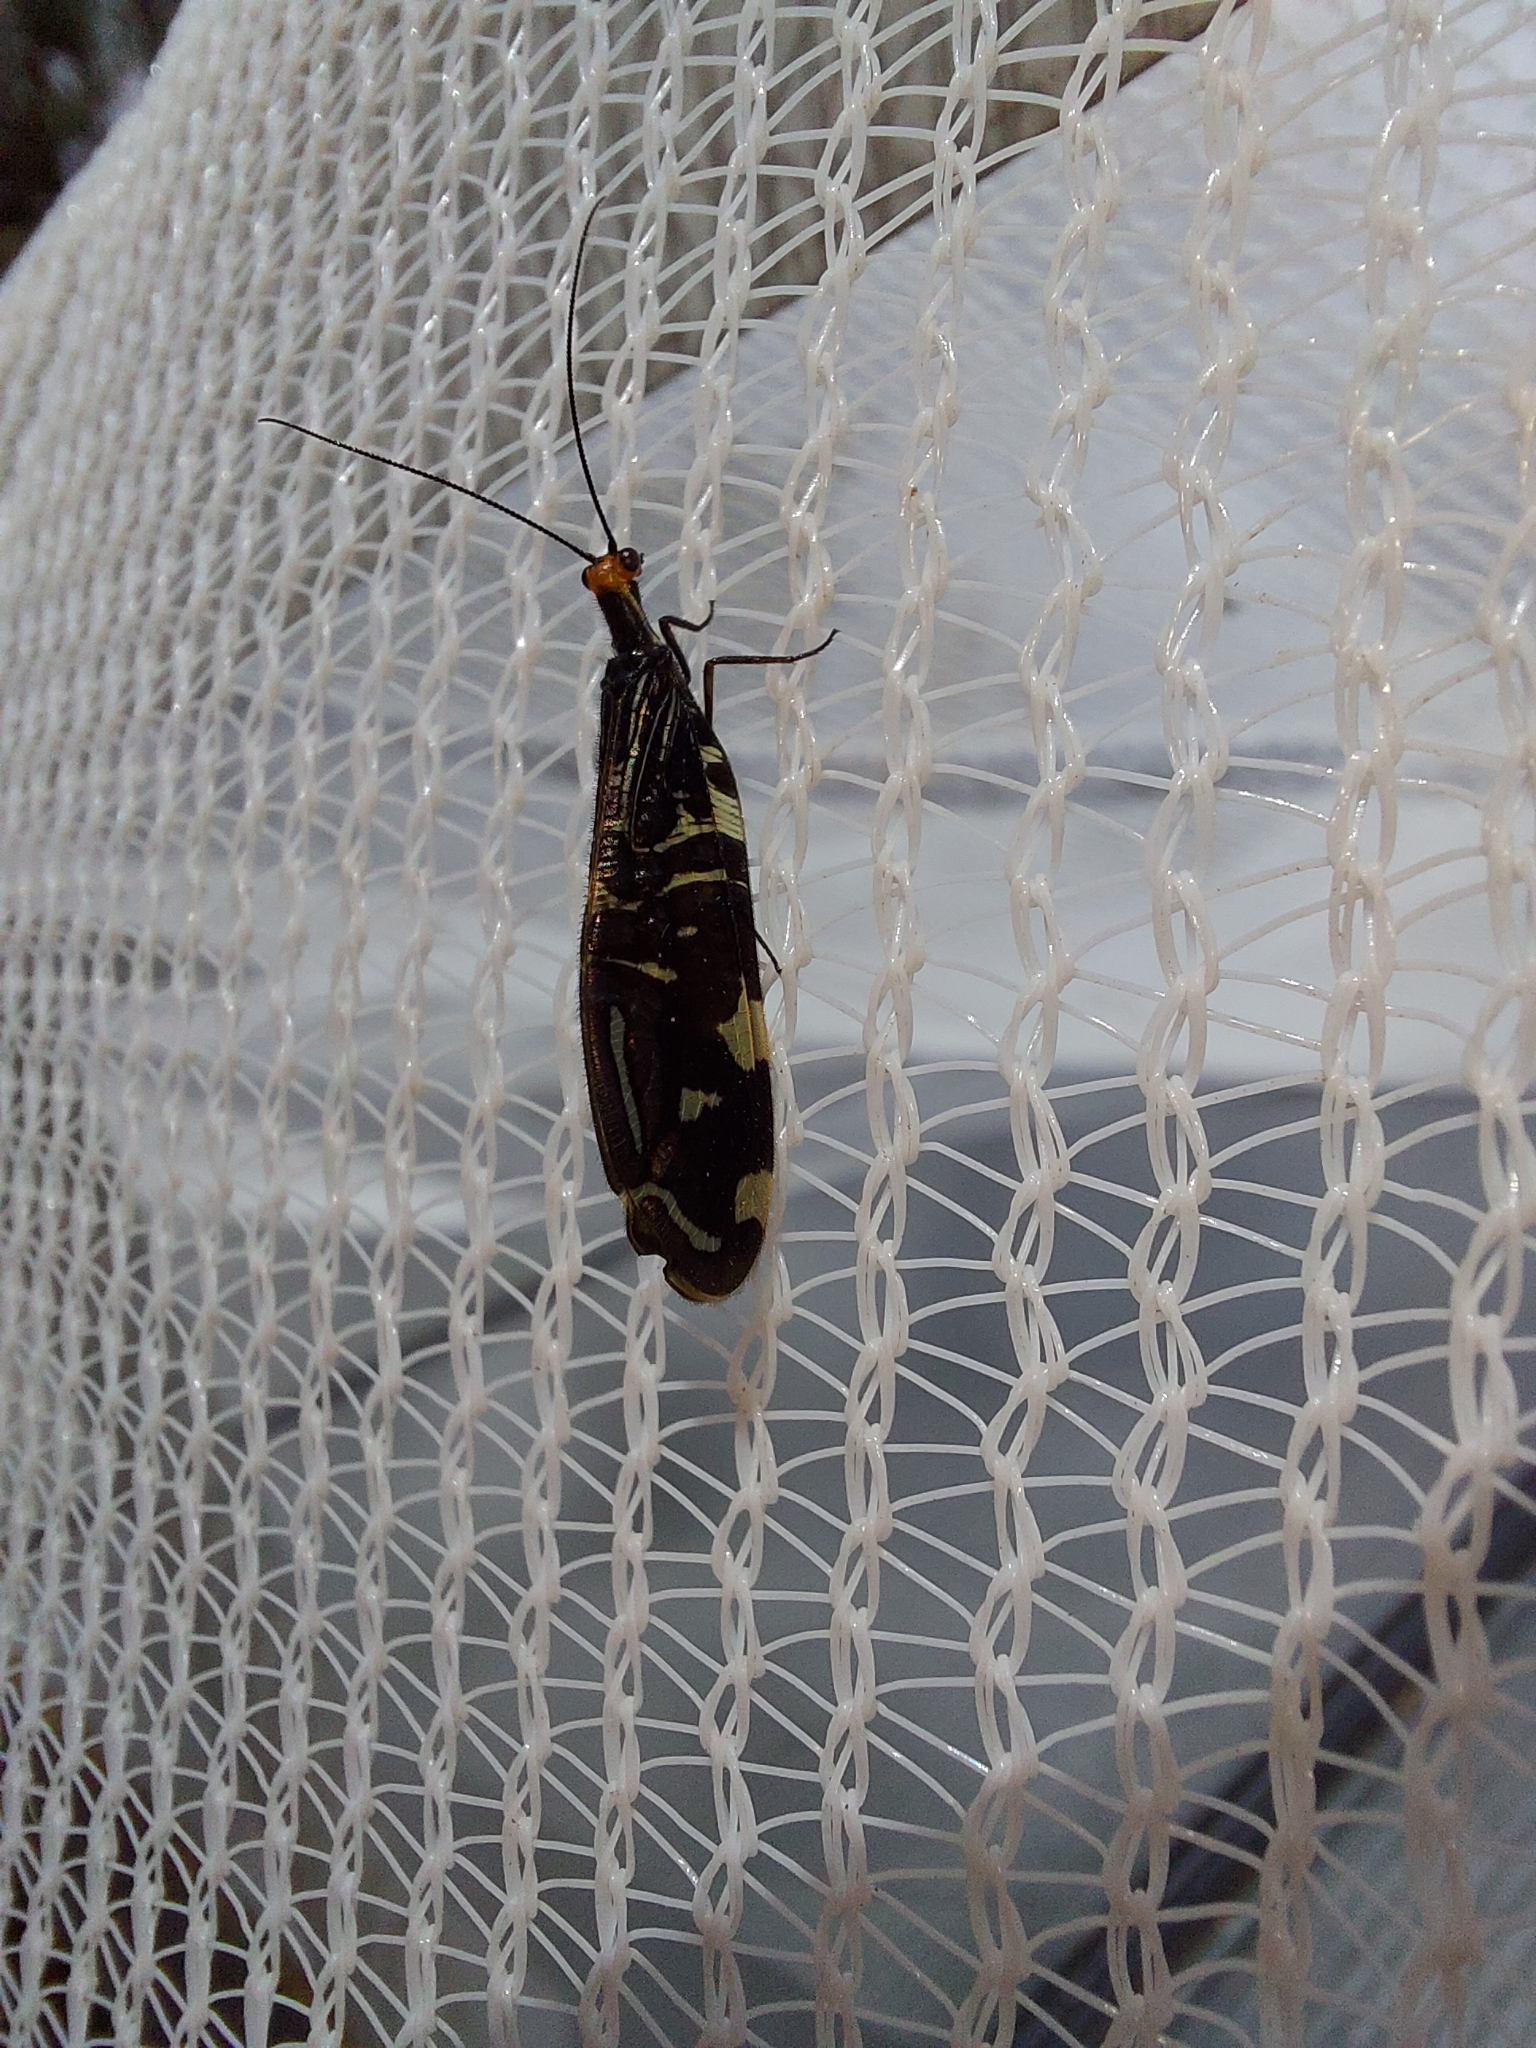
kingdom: Animalia
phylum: Arthropoda
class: Insecta
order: Neuroptera
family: Osmylidae
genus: Porismus
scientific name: Porismus strigatus
